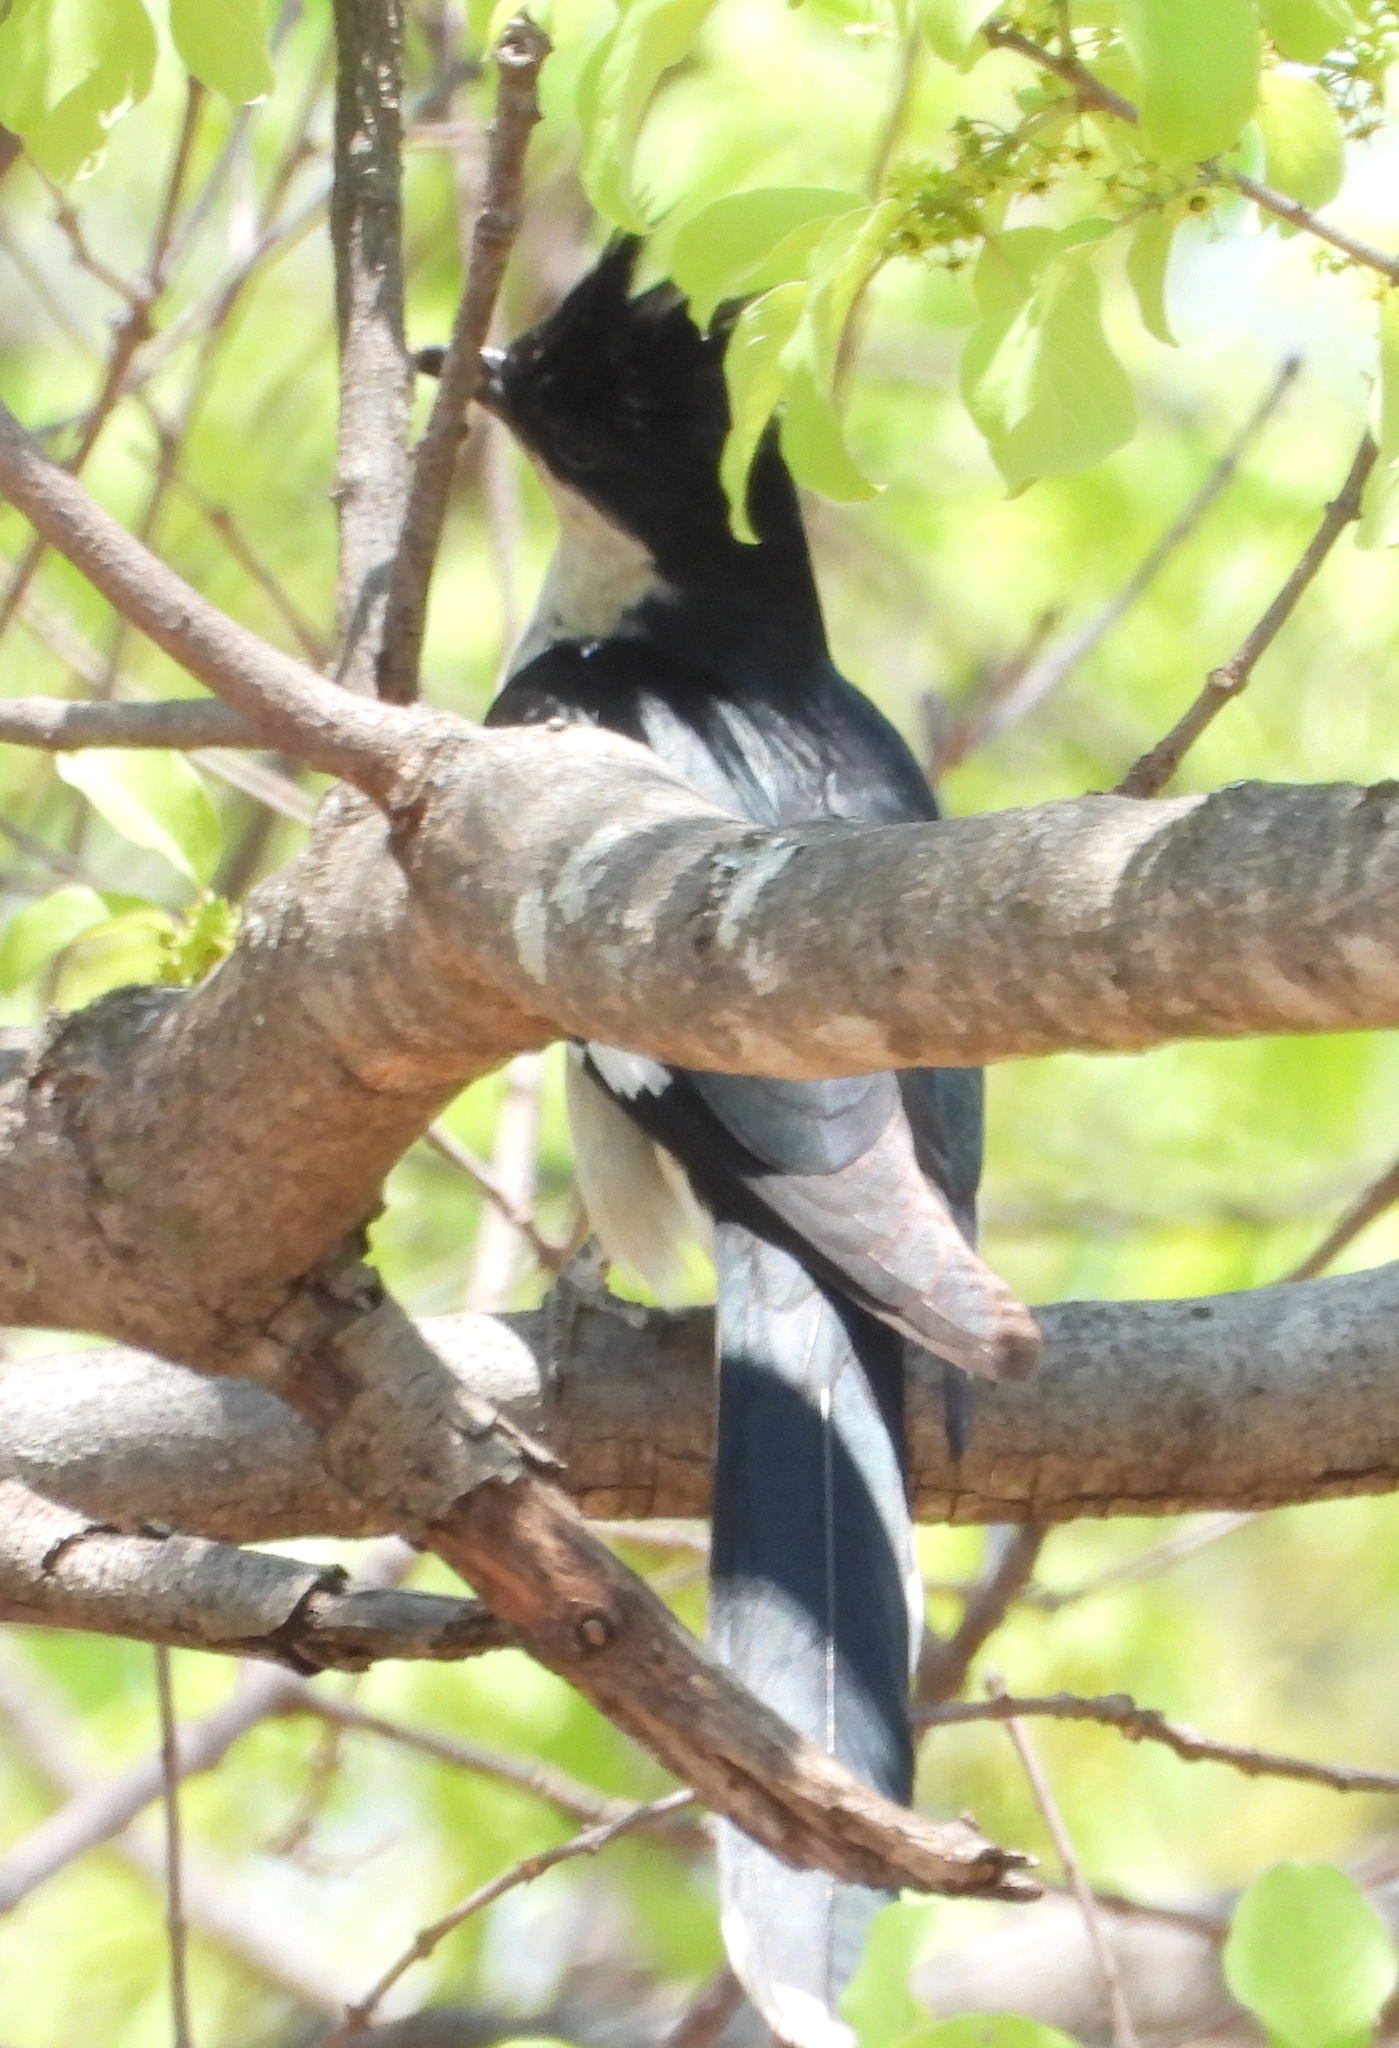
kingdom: Animalia
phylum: Chordata
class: Aves
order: Cuculiformes
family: Cuculidae
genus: Clamator
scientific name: Clamator jacobinus
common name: Jacobin cuckoo
